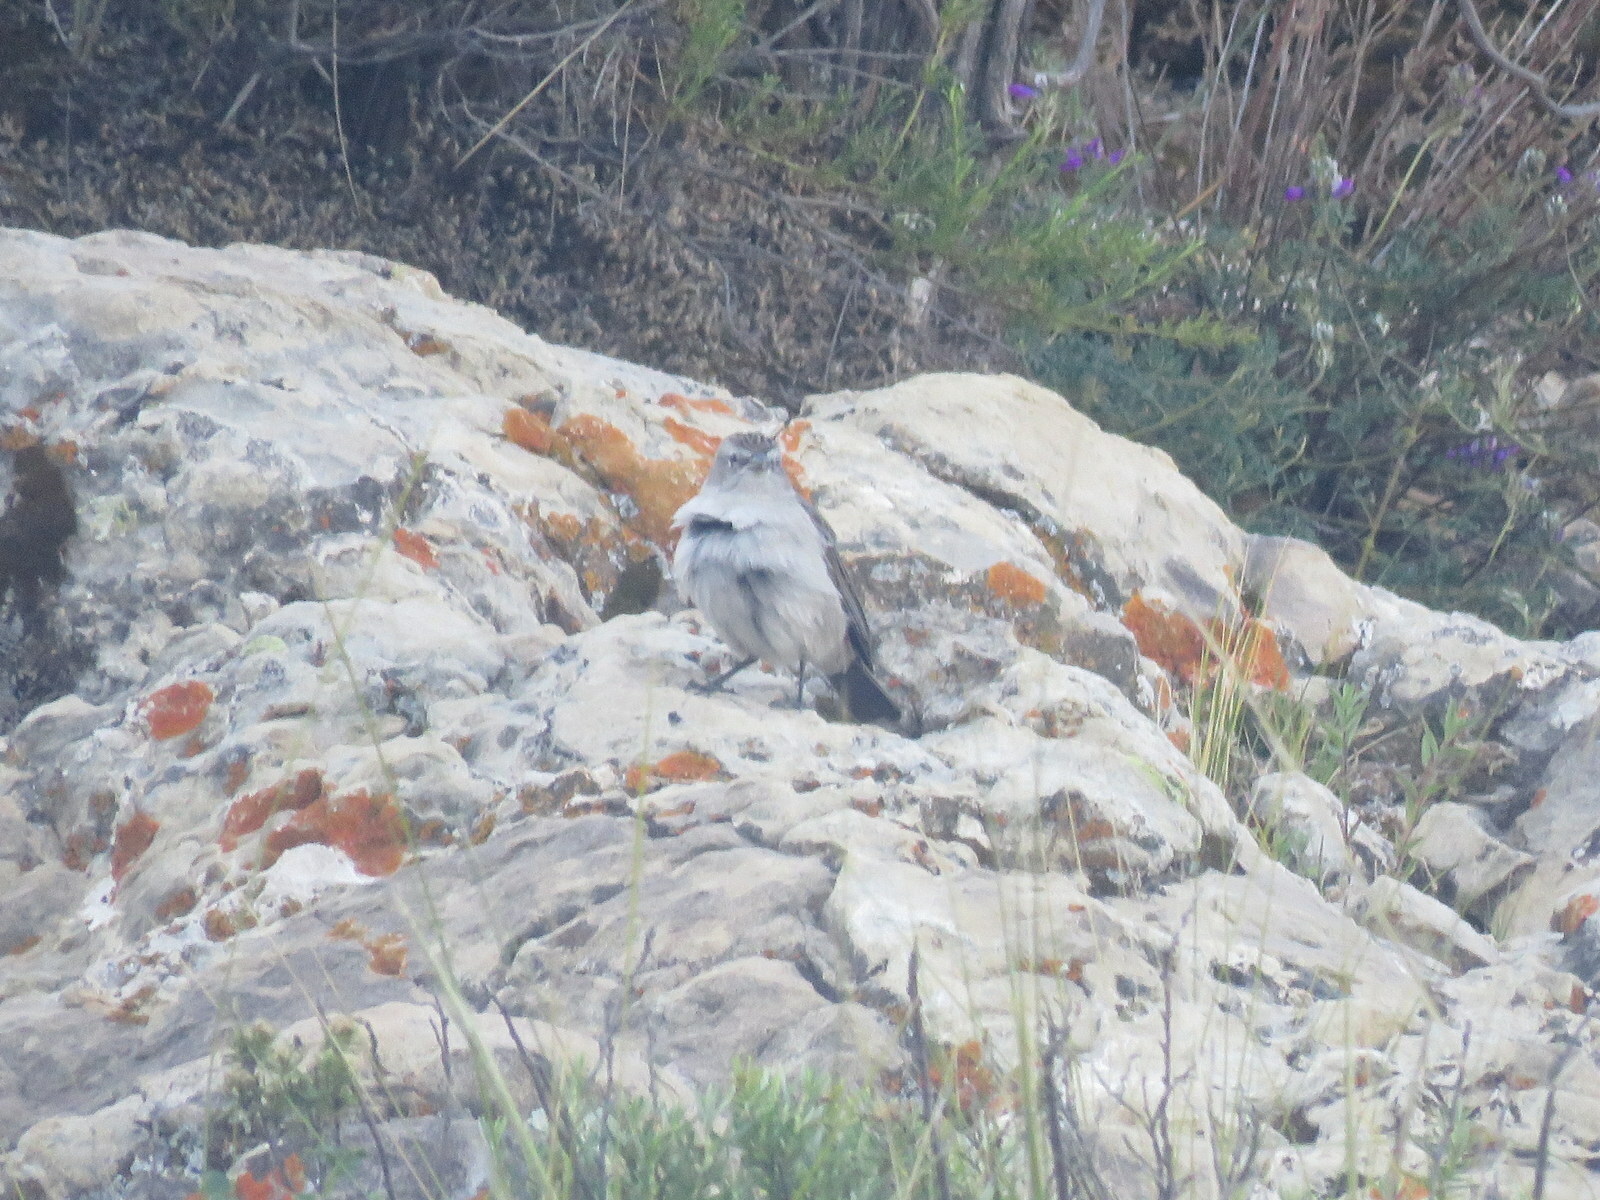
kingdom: Animalia
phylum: Chordata
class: Aves
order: Passeriformes
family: Thraupidae
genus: Geospizopsis
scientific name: Geospizopsis plebejus
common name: Ash-breasted sierra-finch
